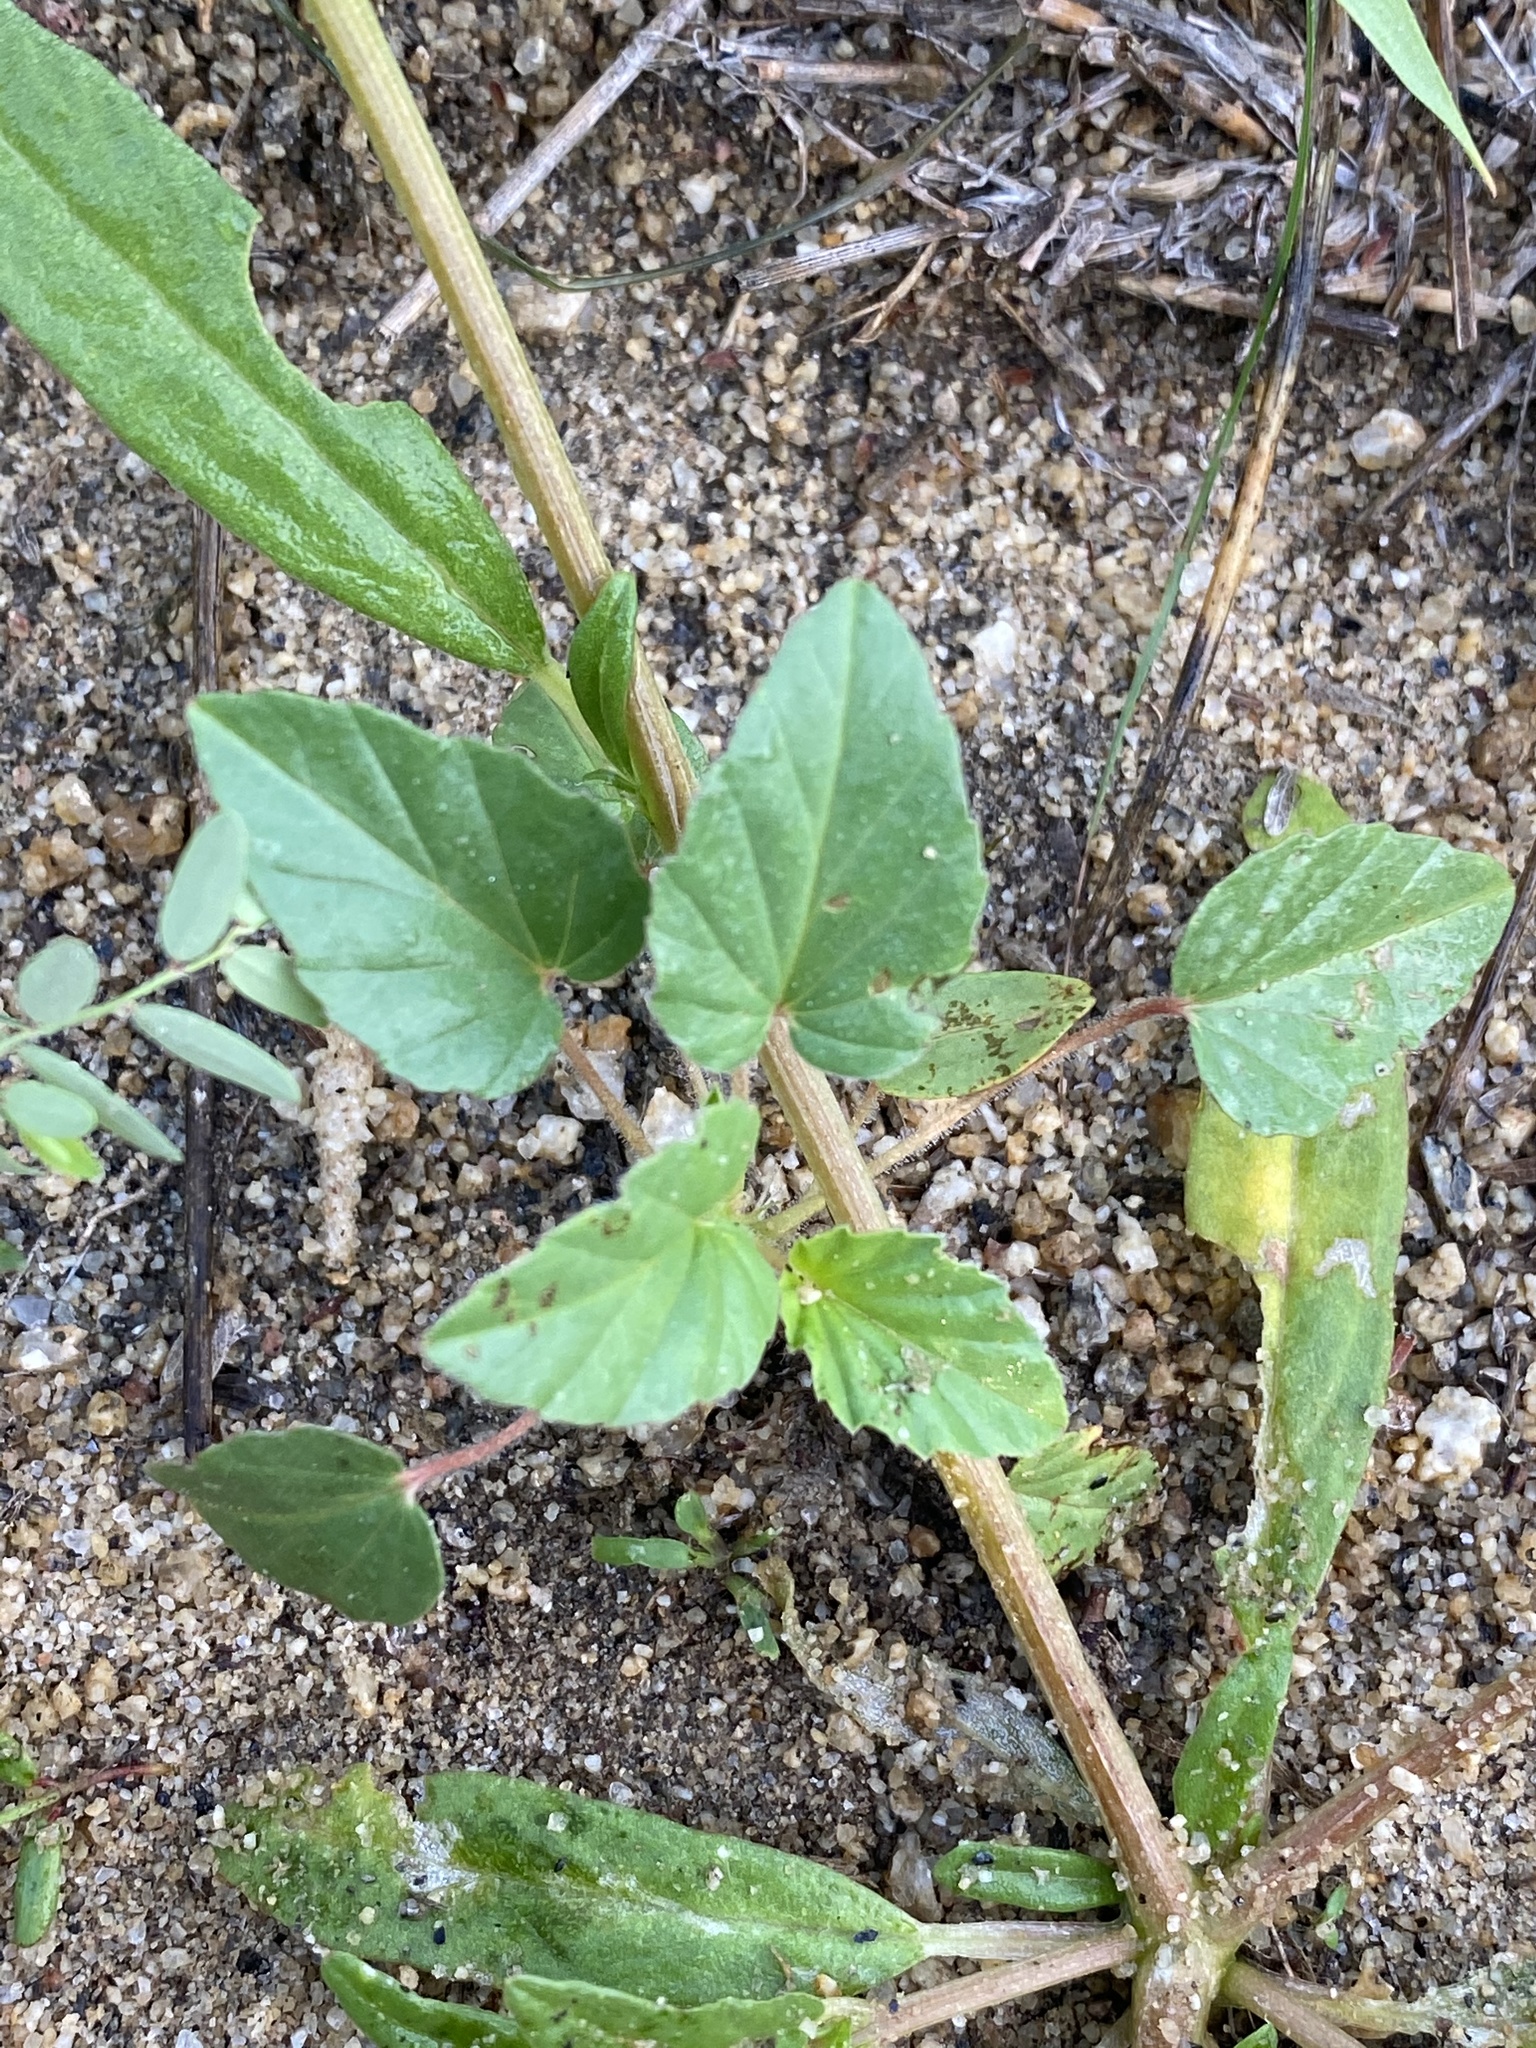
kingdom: Plantae
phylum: Tracheophyta
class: Magnoliopsida
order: Caryophyllales
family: Gisekiaceae
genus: Gisekia
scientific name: Gisekia africana
